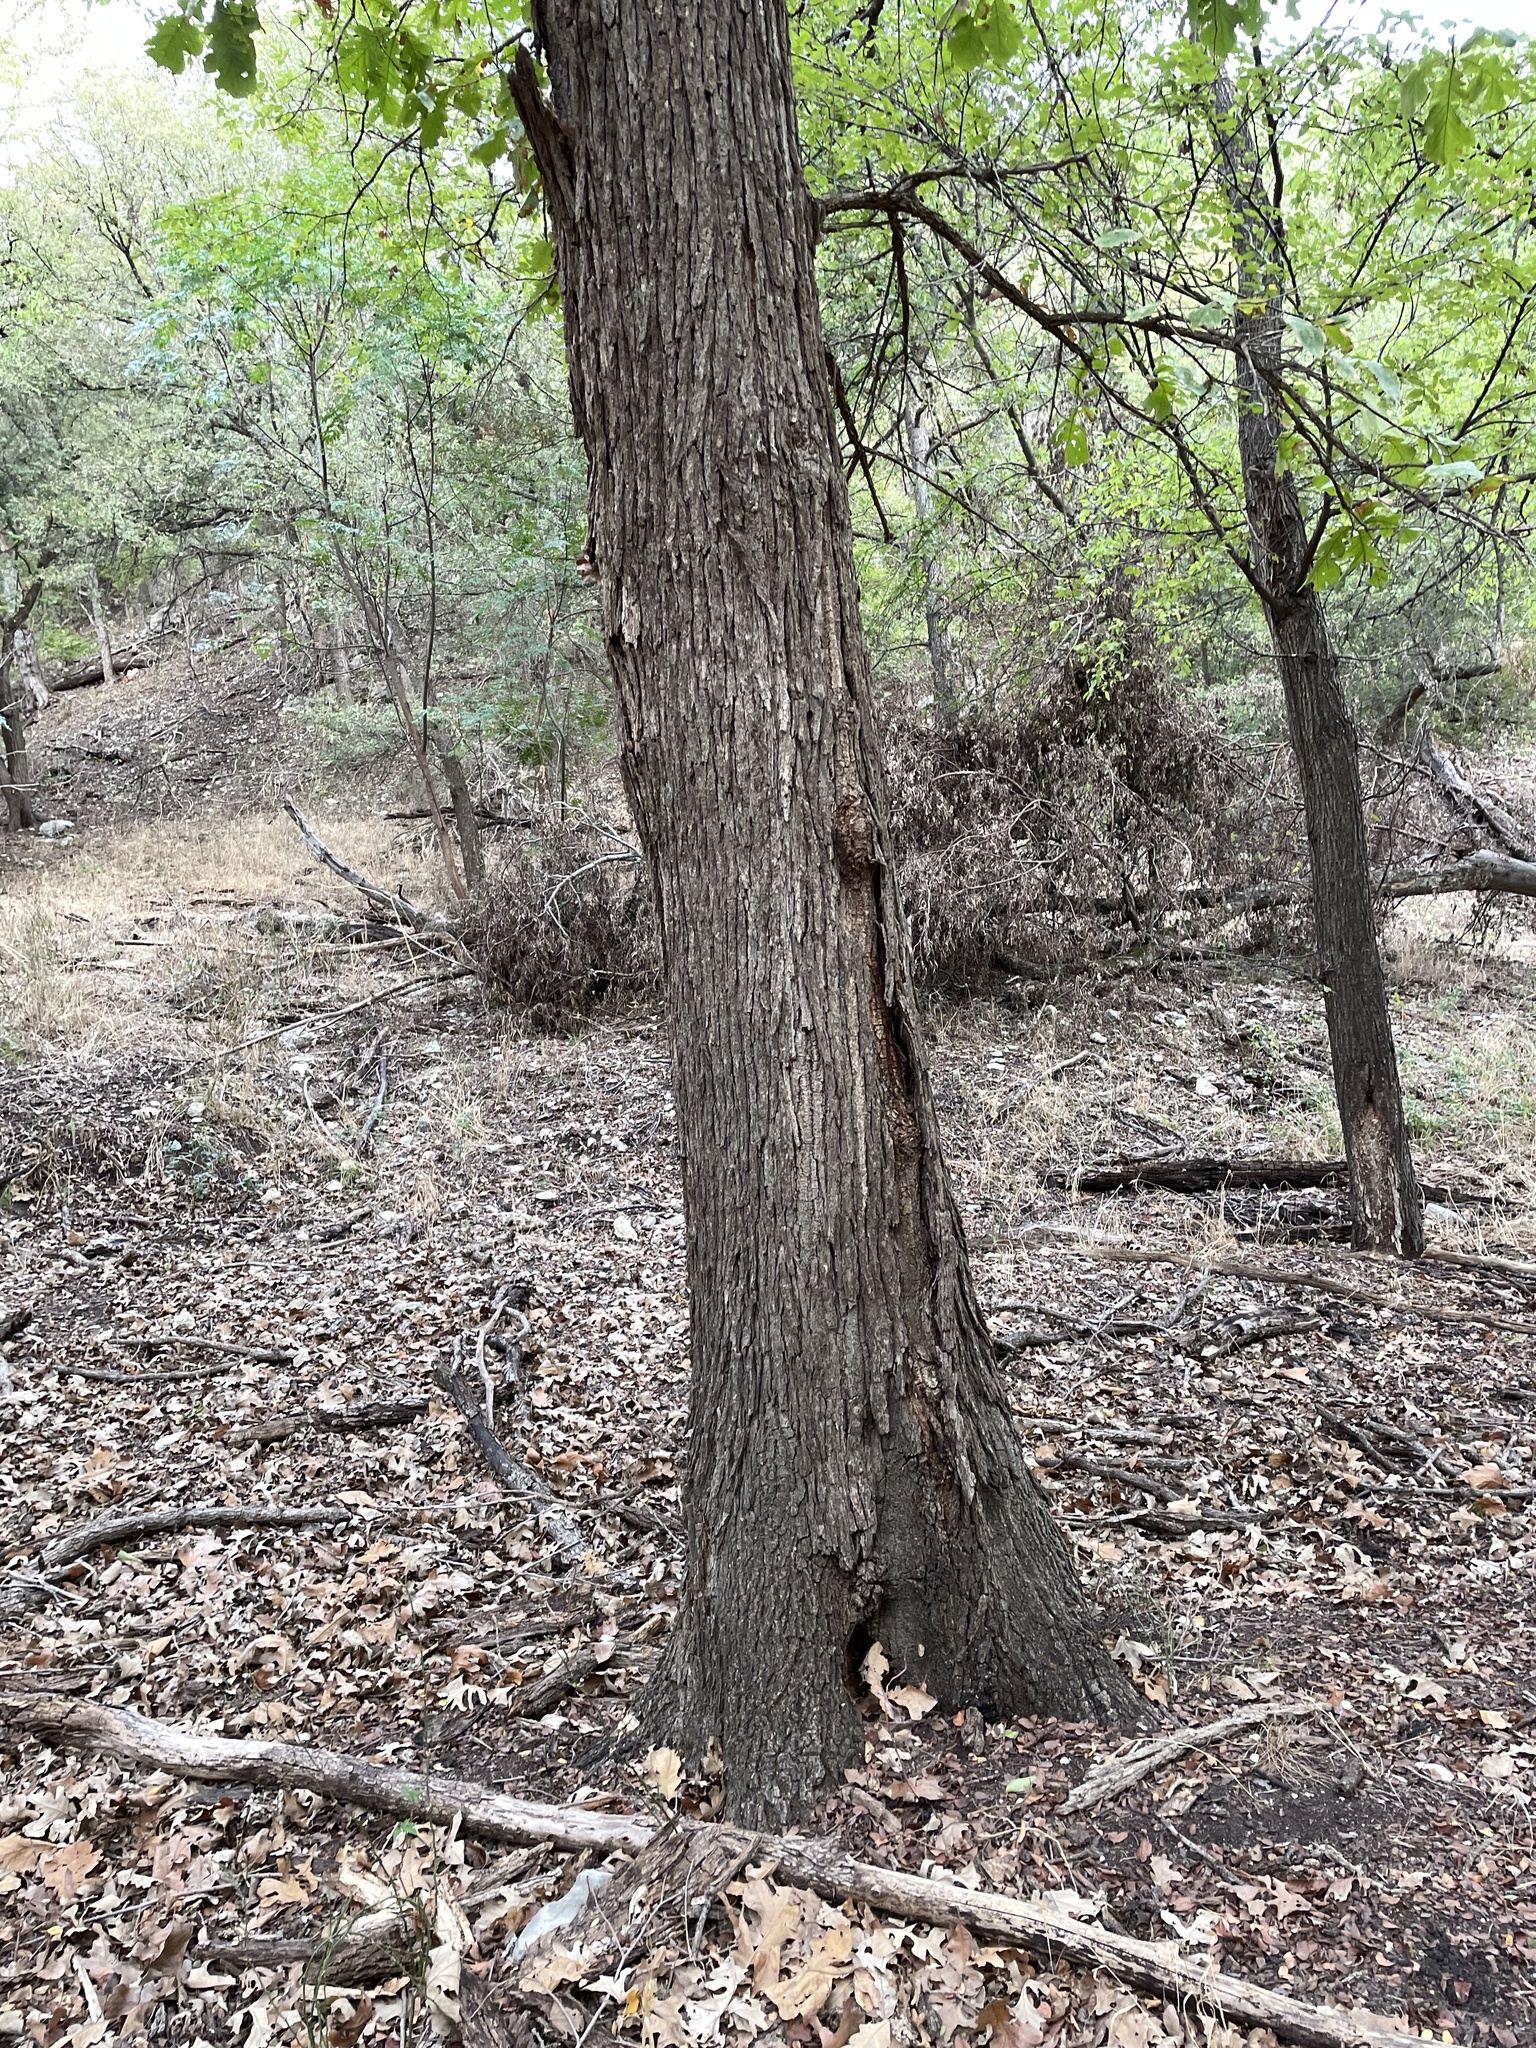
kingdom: Plantae
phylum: Tracheophyta
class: Magnoliopsida
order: Fagales
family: Fagaceae
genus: Quercus
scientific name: Quercus macrocarpa
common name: Bur oak
